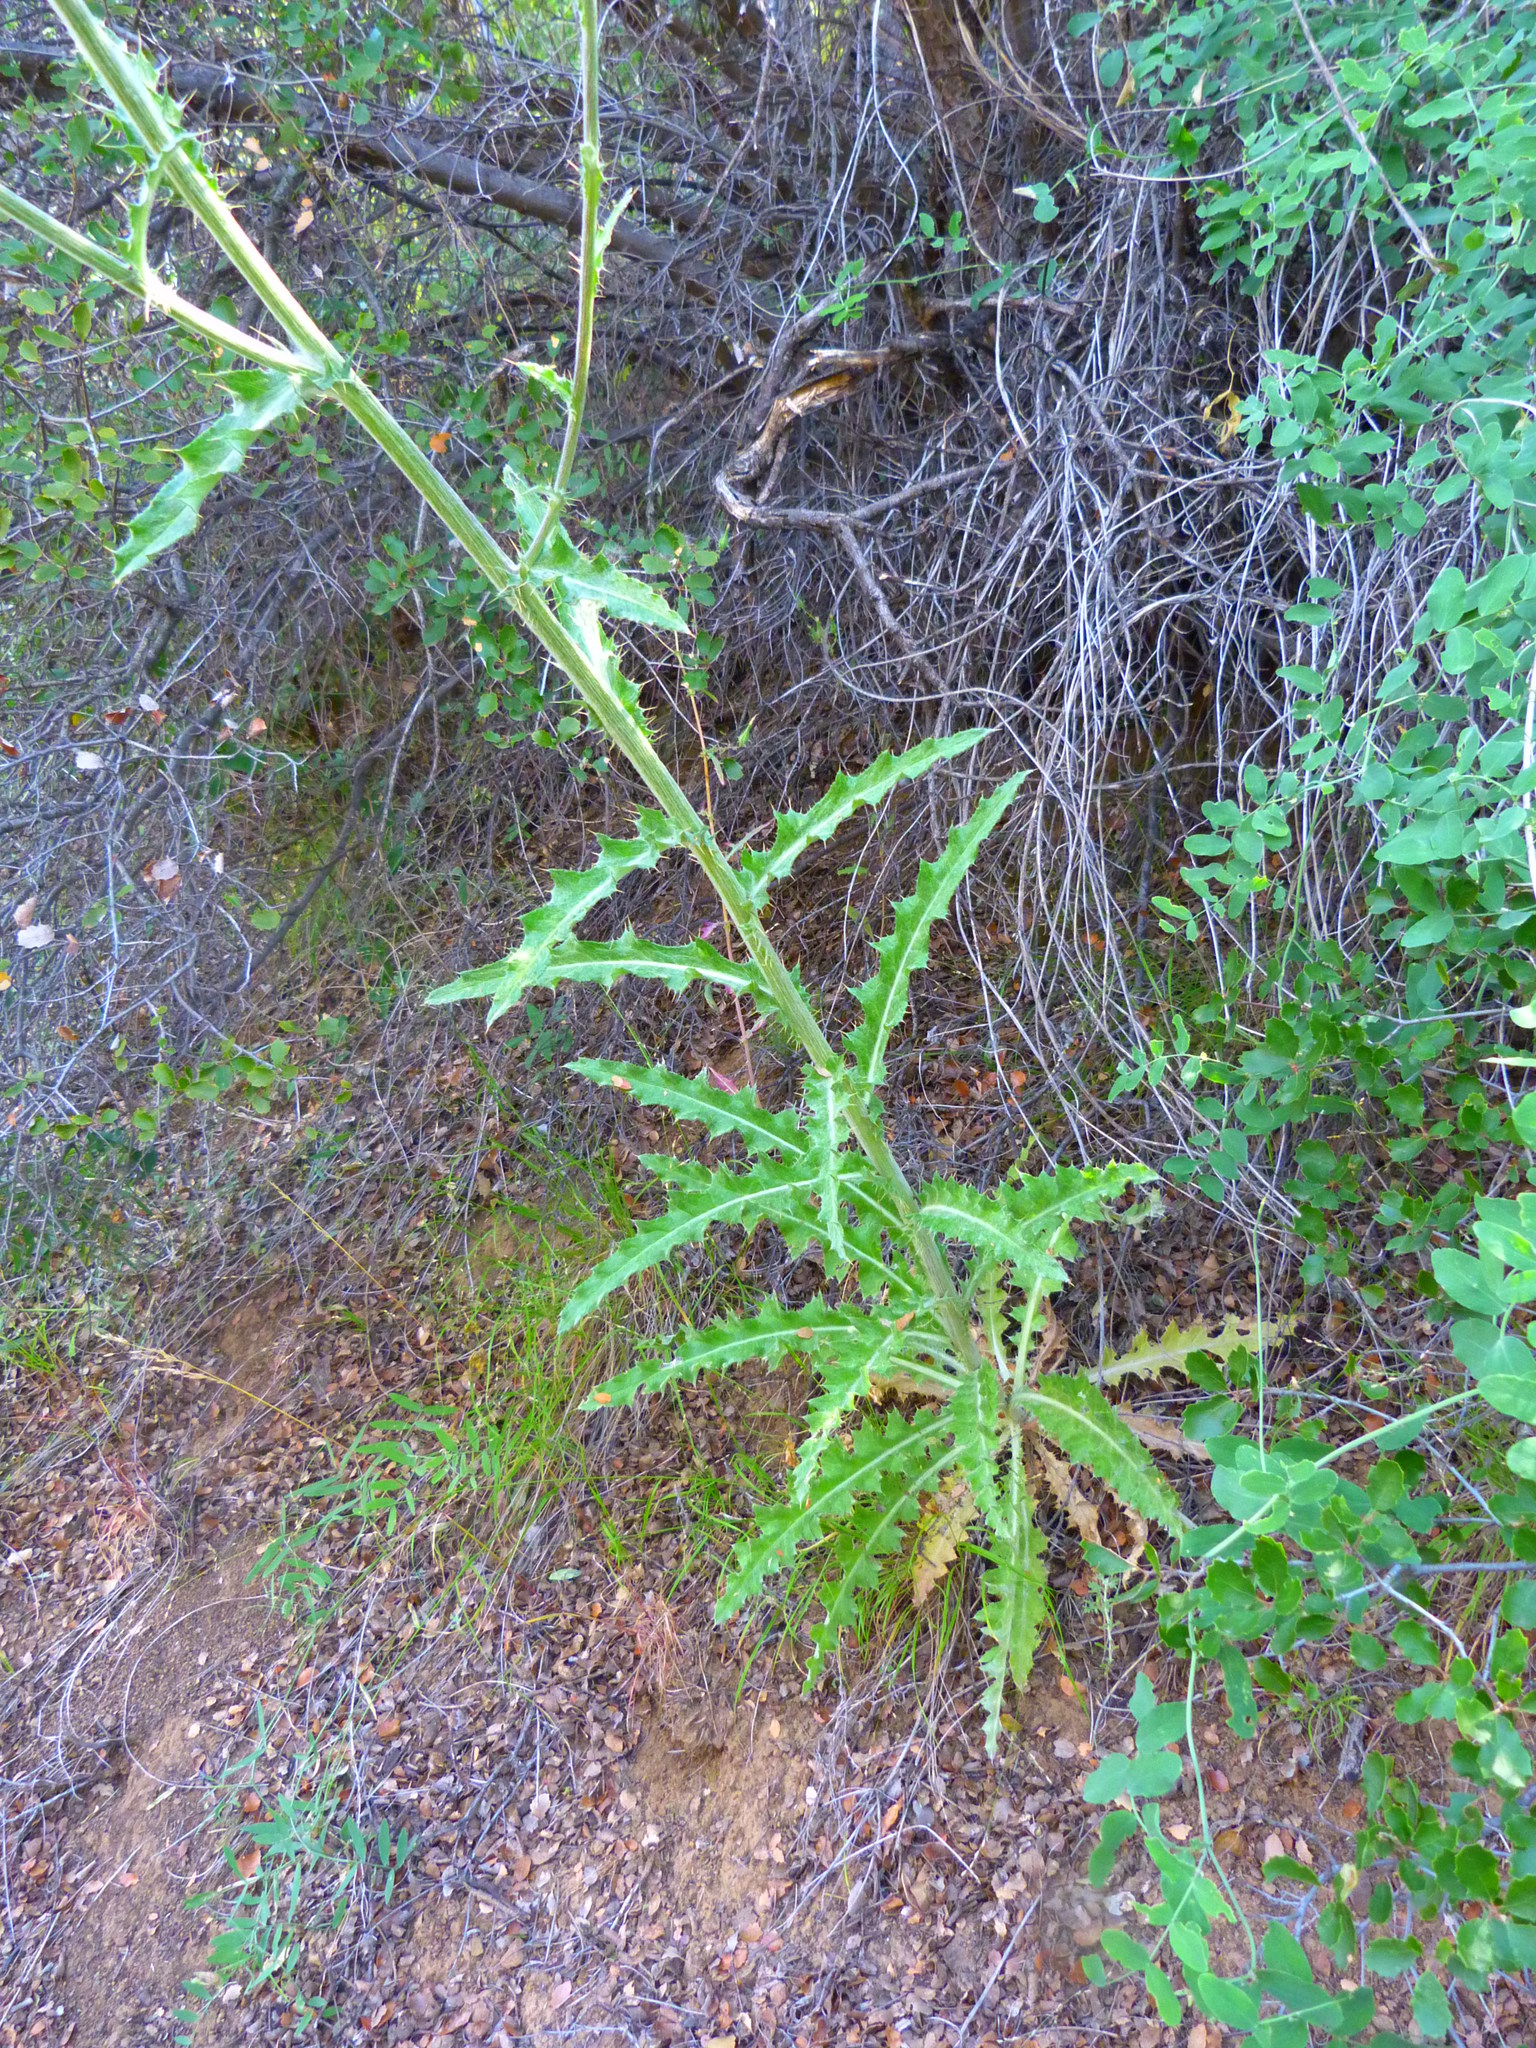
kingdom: Plantae
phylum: Tracheophyta
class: Magnoliopsida
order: Asterales
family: Asteraceae
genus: Cirsium
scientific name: Cirsium occidentale
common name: Western thistle
